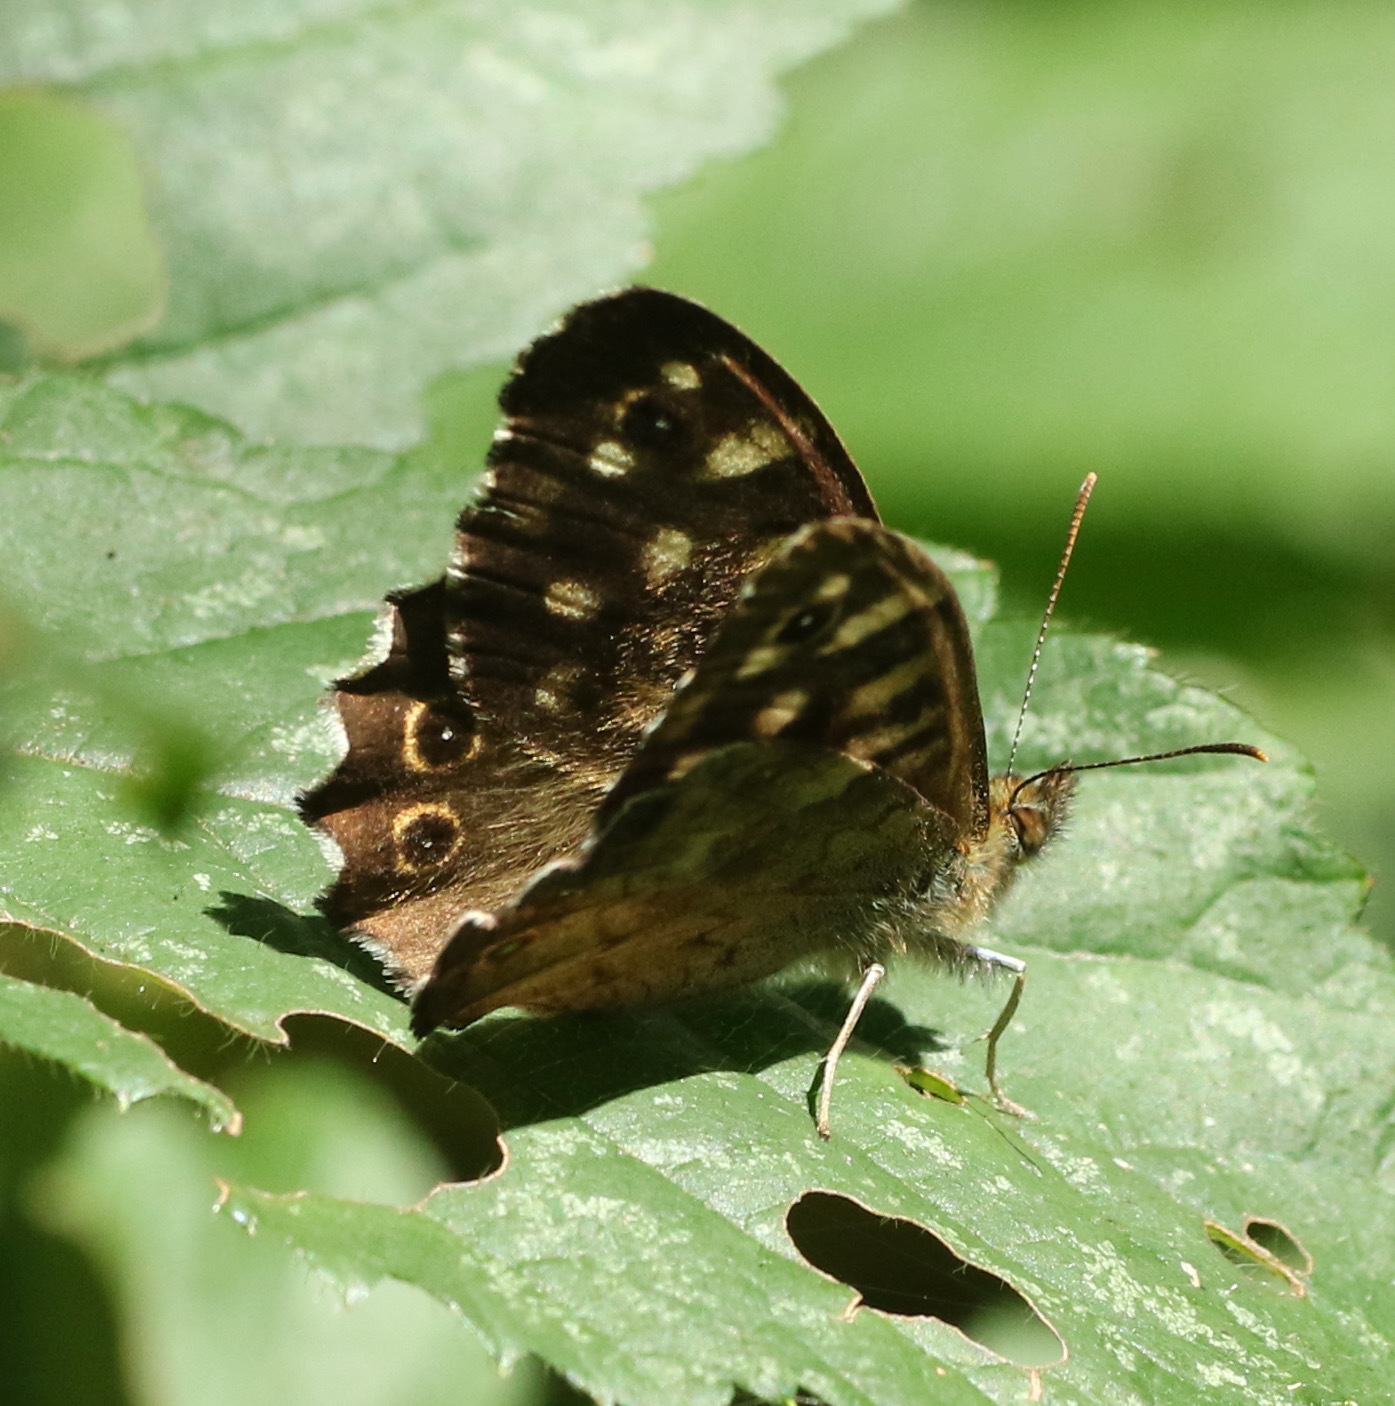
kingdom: Animalia
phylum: Arthropoda
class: Insecta
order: Lepidoptera
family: Nymphalidae
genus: Pararge
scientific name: Pararge aegeria
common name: Speckled wood
